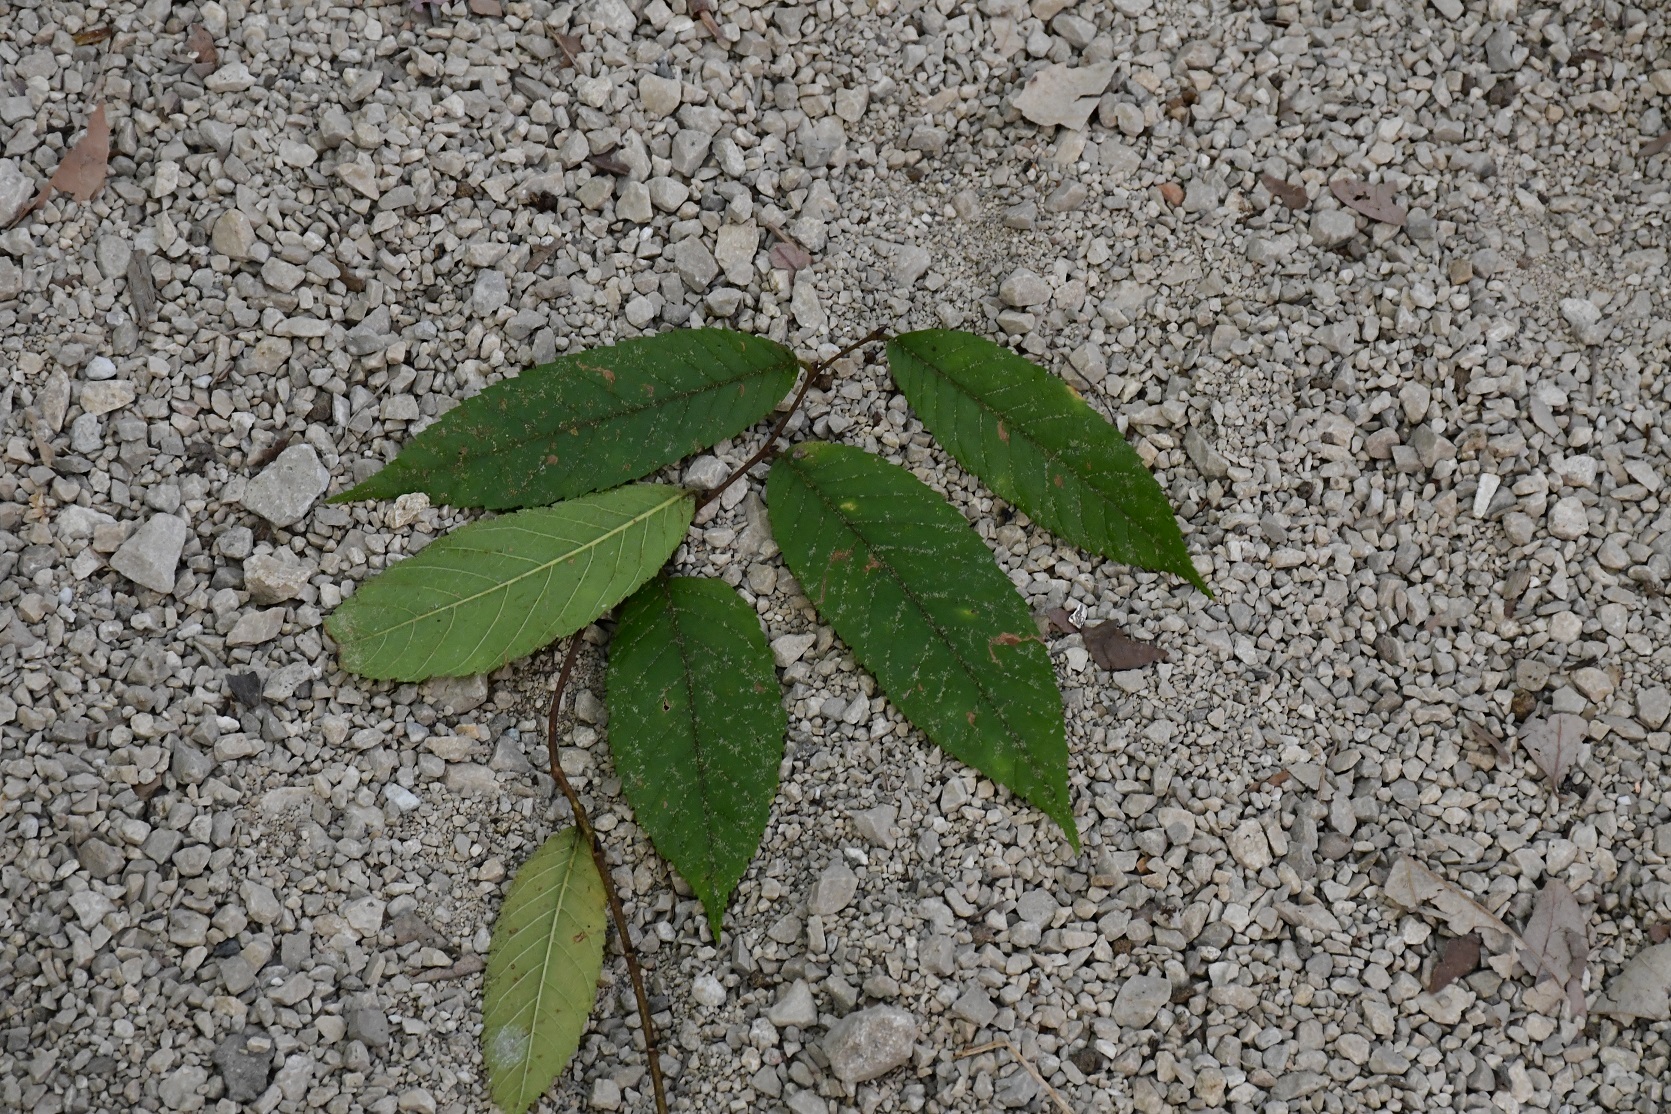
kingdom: Plantae
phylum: Tracheophyta
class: Magnoliopsida
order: Rosales
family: Cannabaceae
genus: Aphananthe
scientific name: Aphananthe monoica
